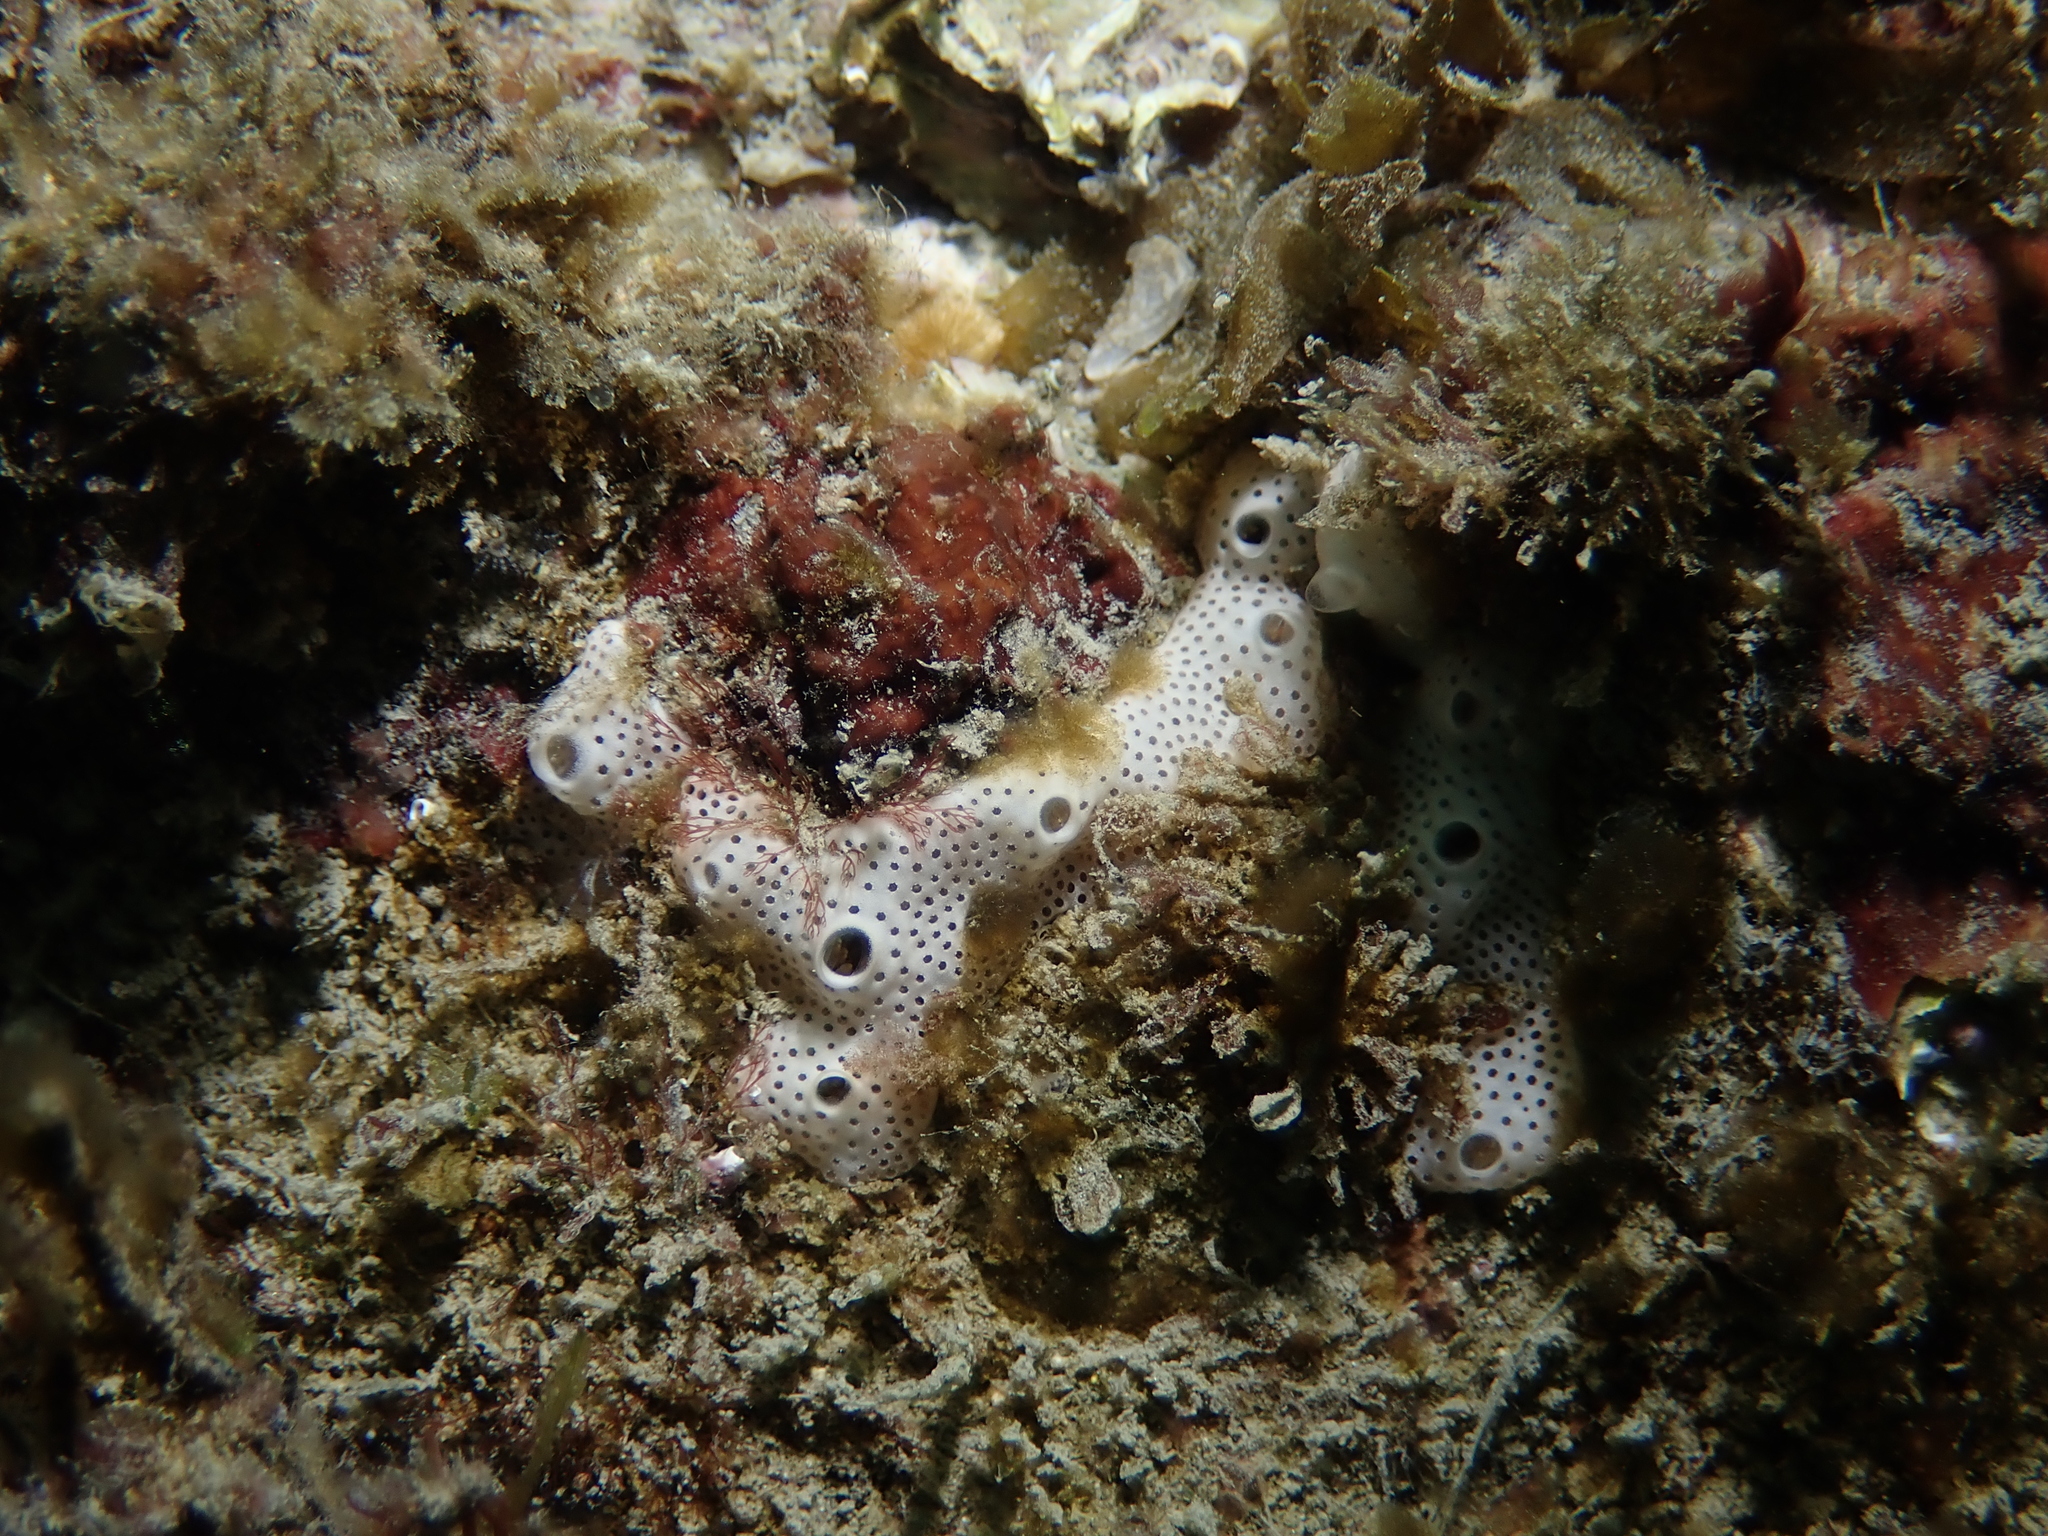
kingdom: Animalia
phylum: Chordata
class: Ascidiacea
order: Aplousobranchia
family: Didemnidae
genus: Lissoclinum
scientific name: Lissoclinum perforatum
